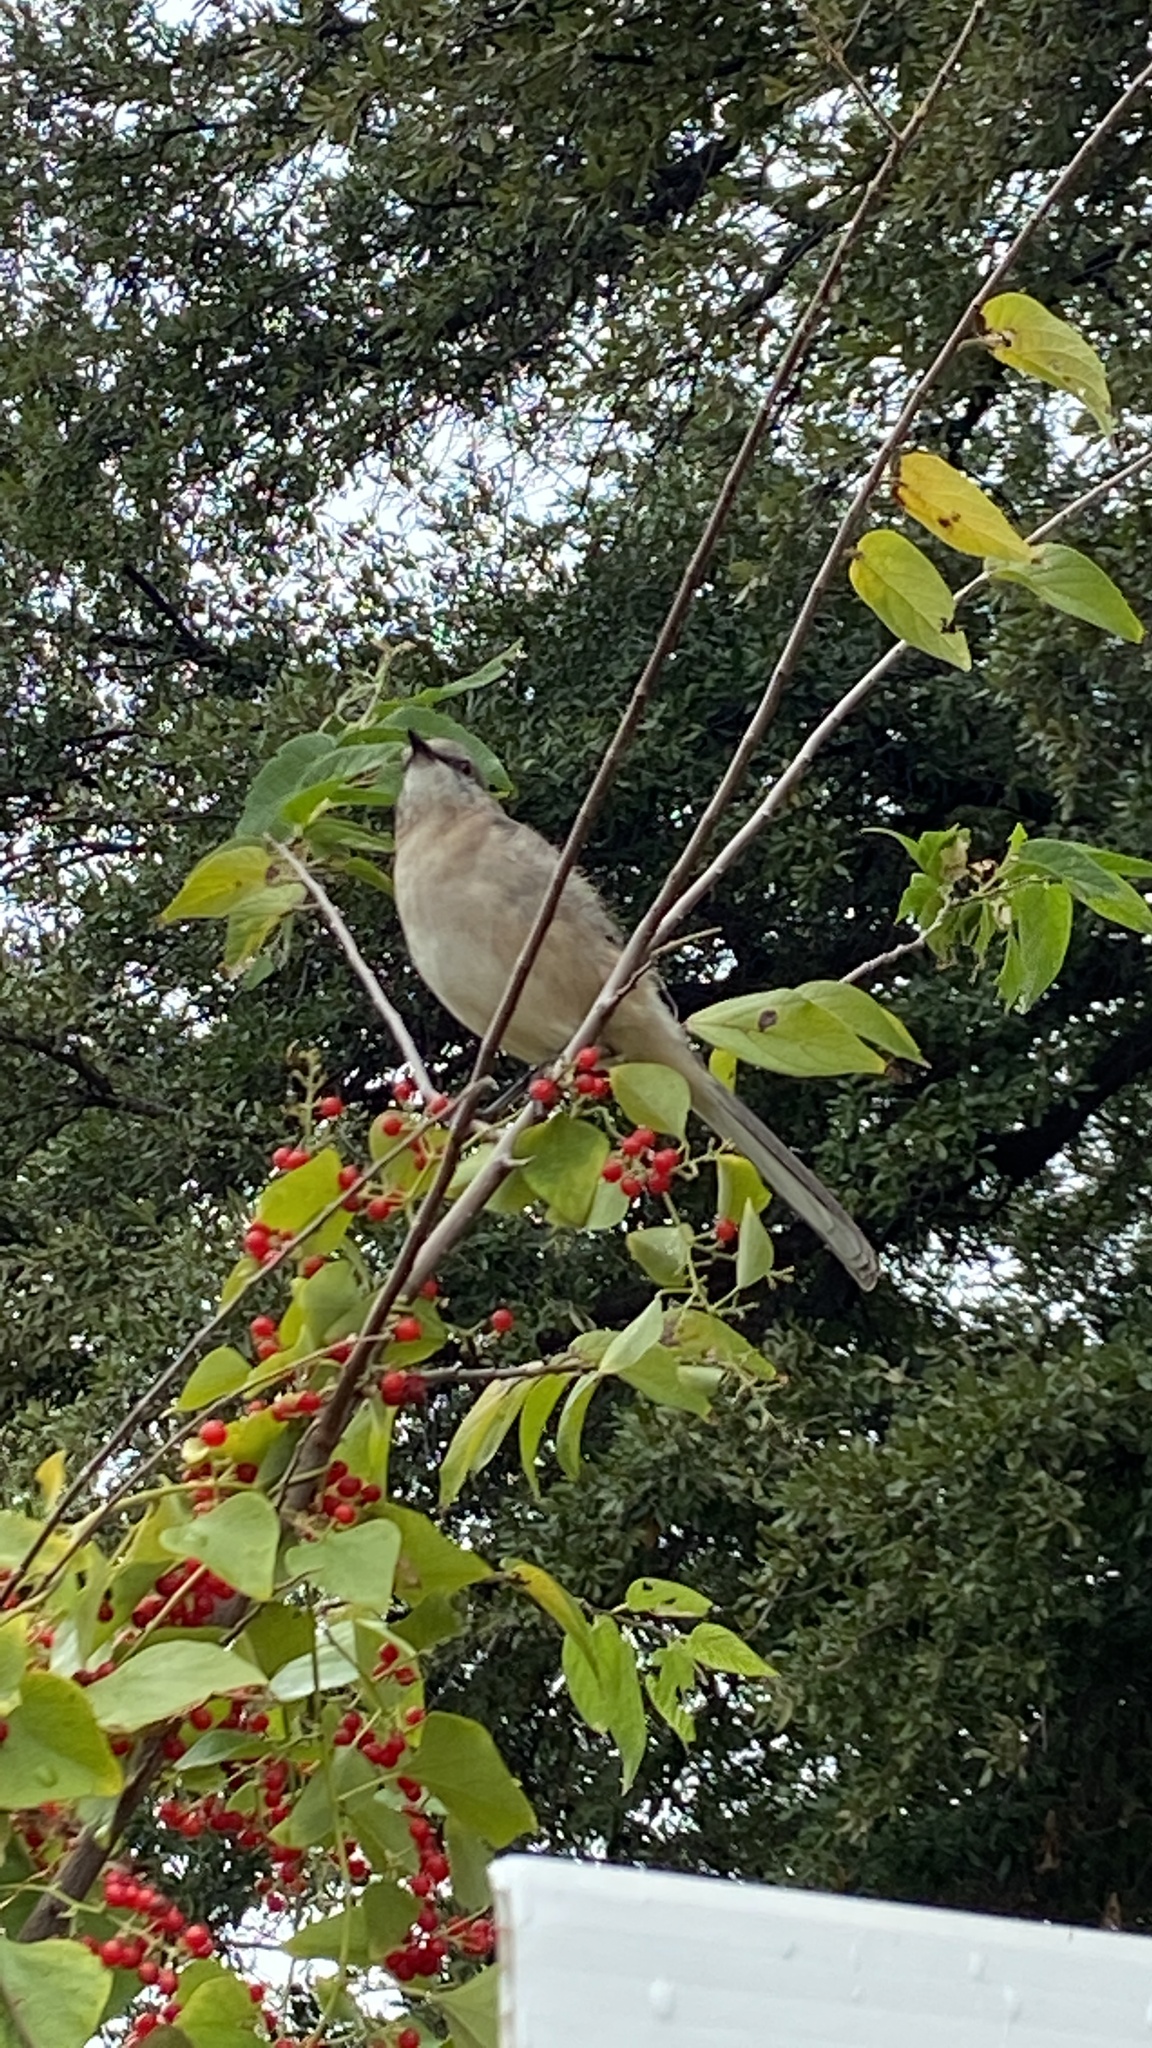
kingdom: Animalia
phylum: Chordata
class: Aves
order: Passeriformes
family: Mimidae
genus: Mimus
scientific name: Mimus polyglottos
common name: Northern mockingbird
